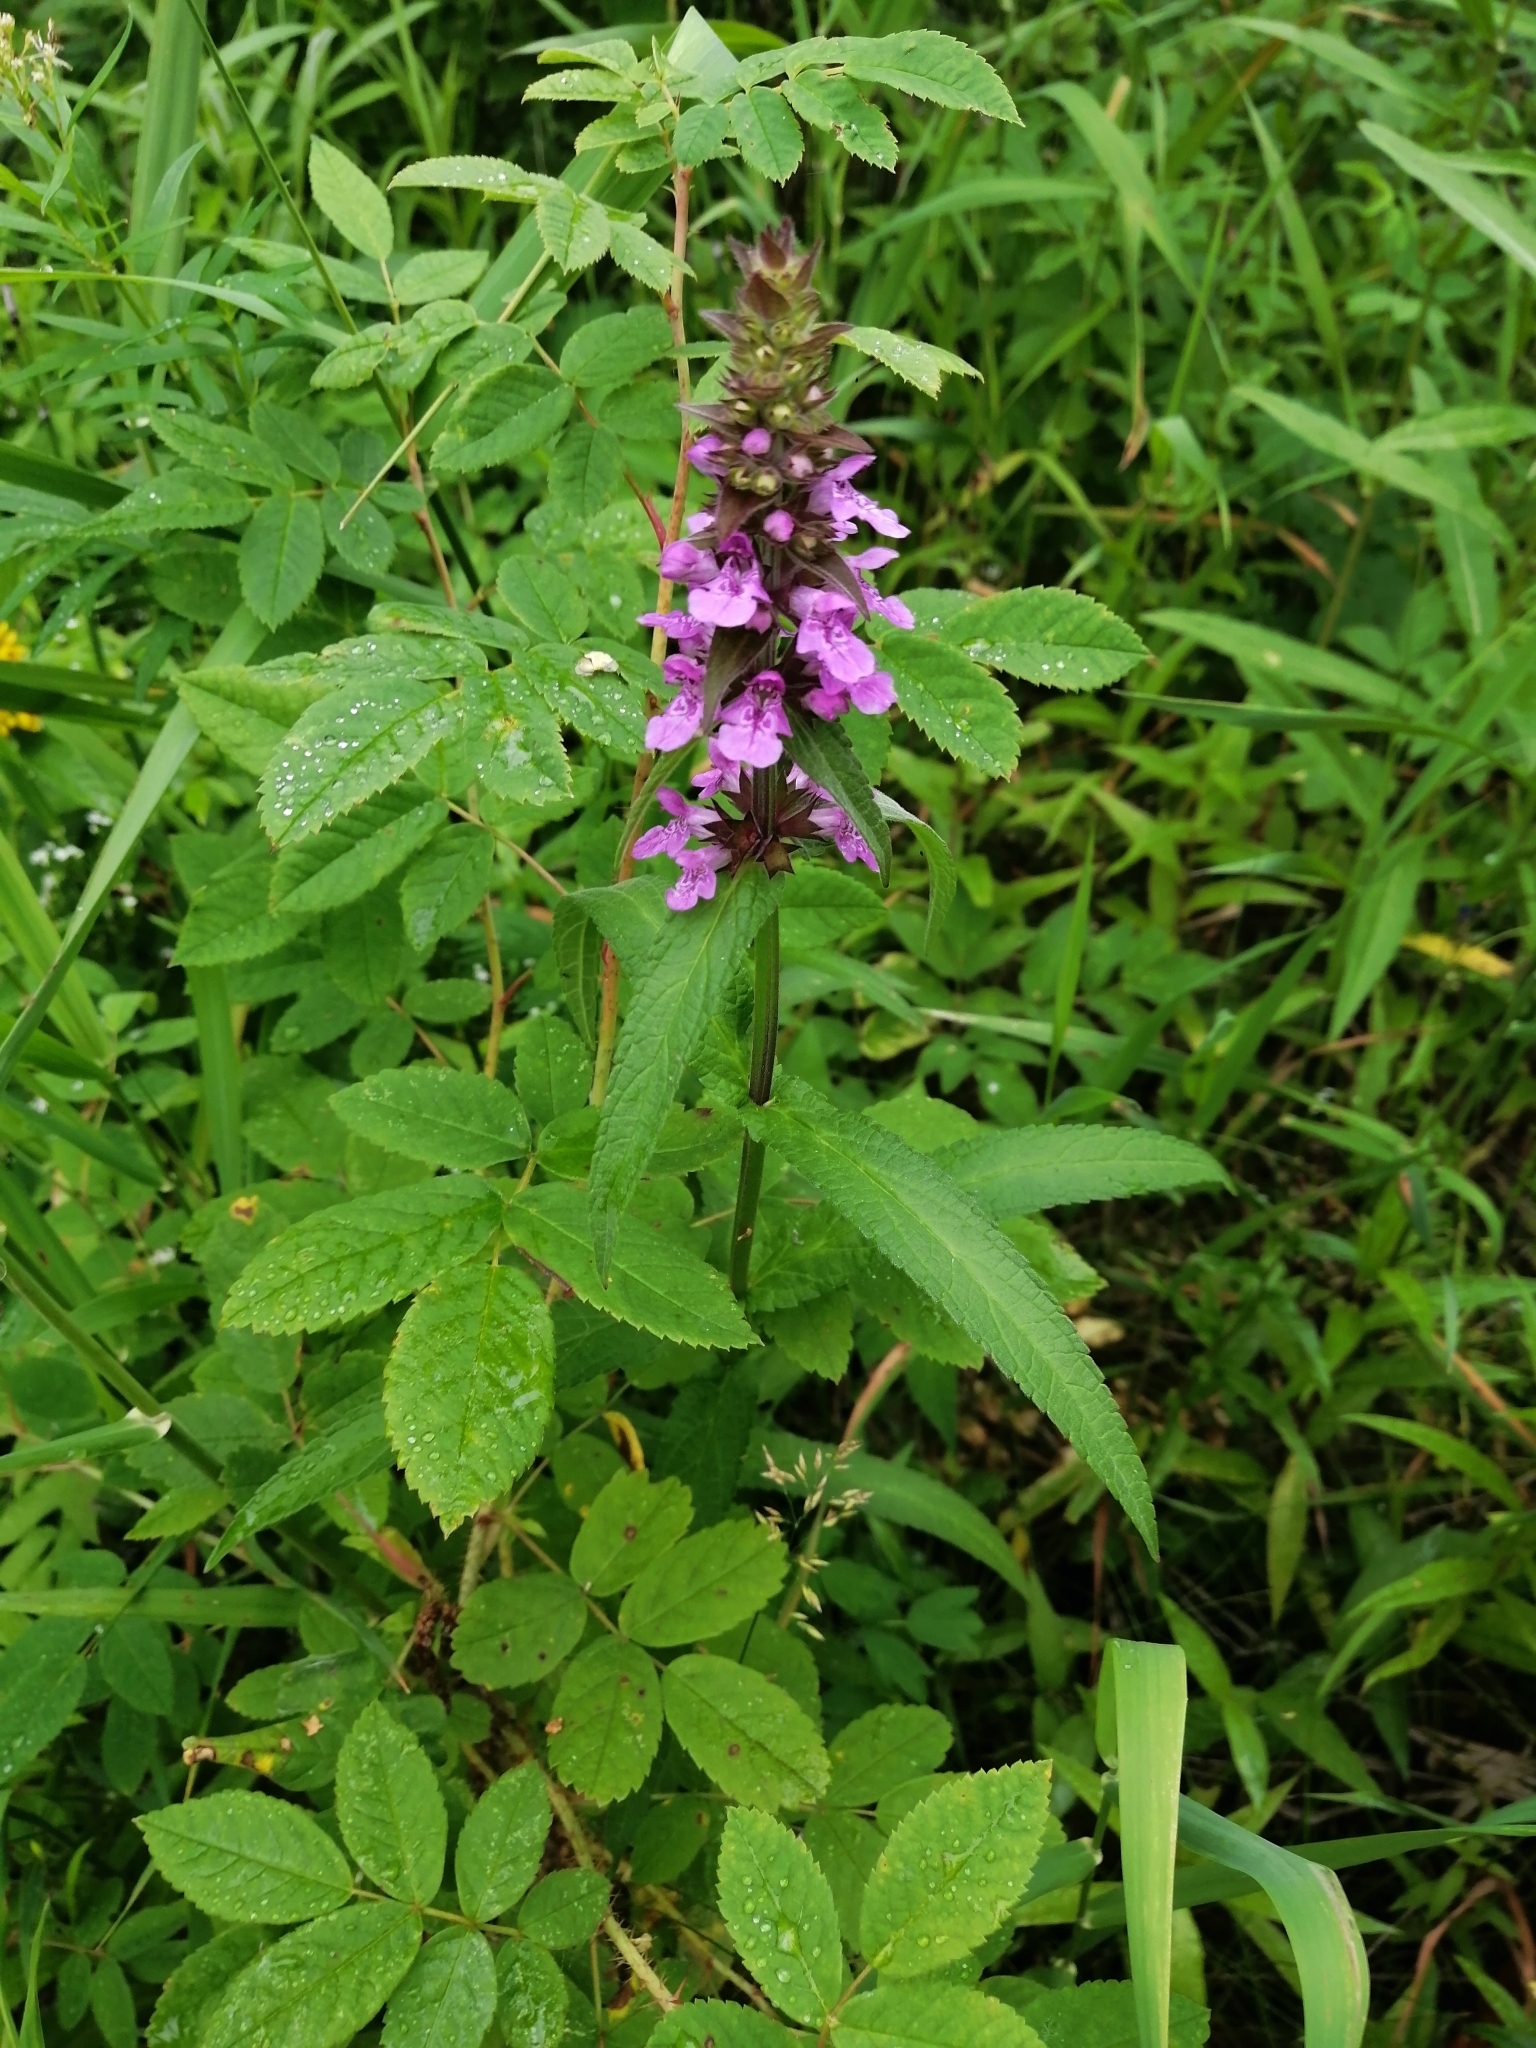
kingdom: Plantae
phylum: Tracheophyta
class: Magnoliopsida
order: Lamiales
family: Lamiaceae
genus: Stachys
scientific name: Stachys palustris
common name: Marsh woundwort
